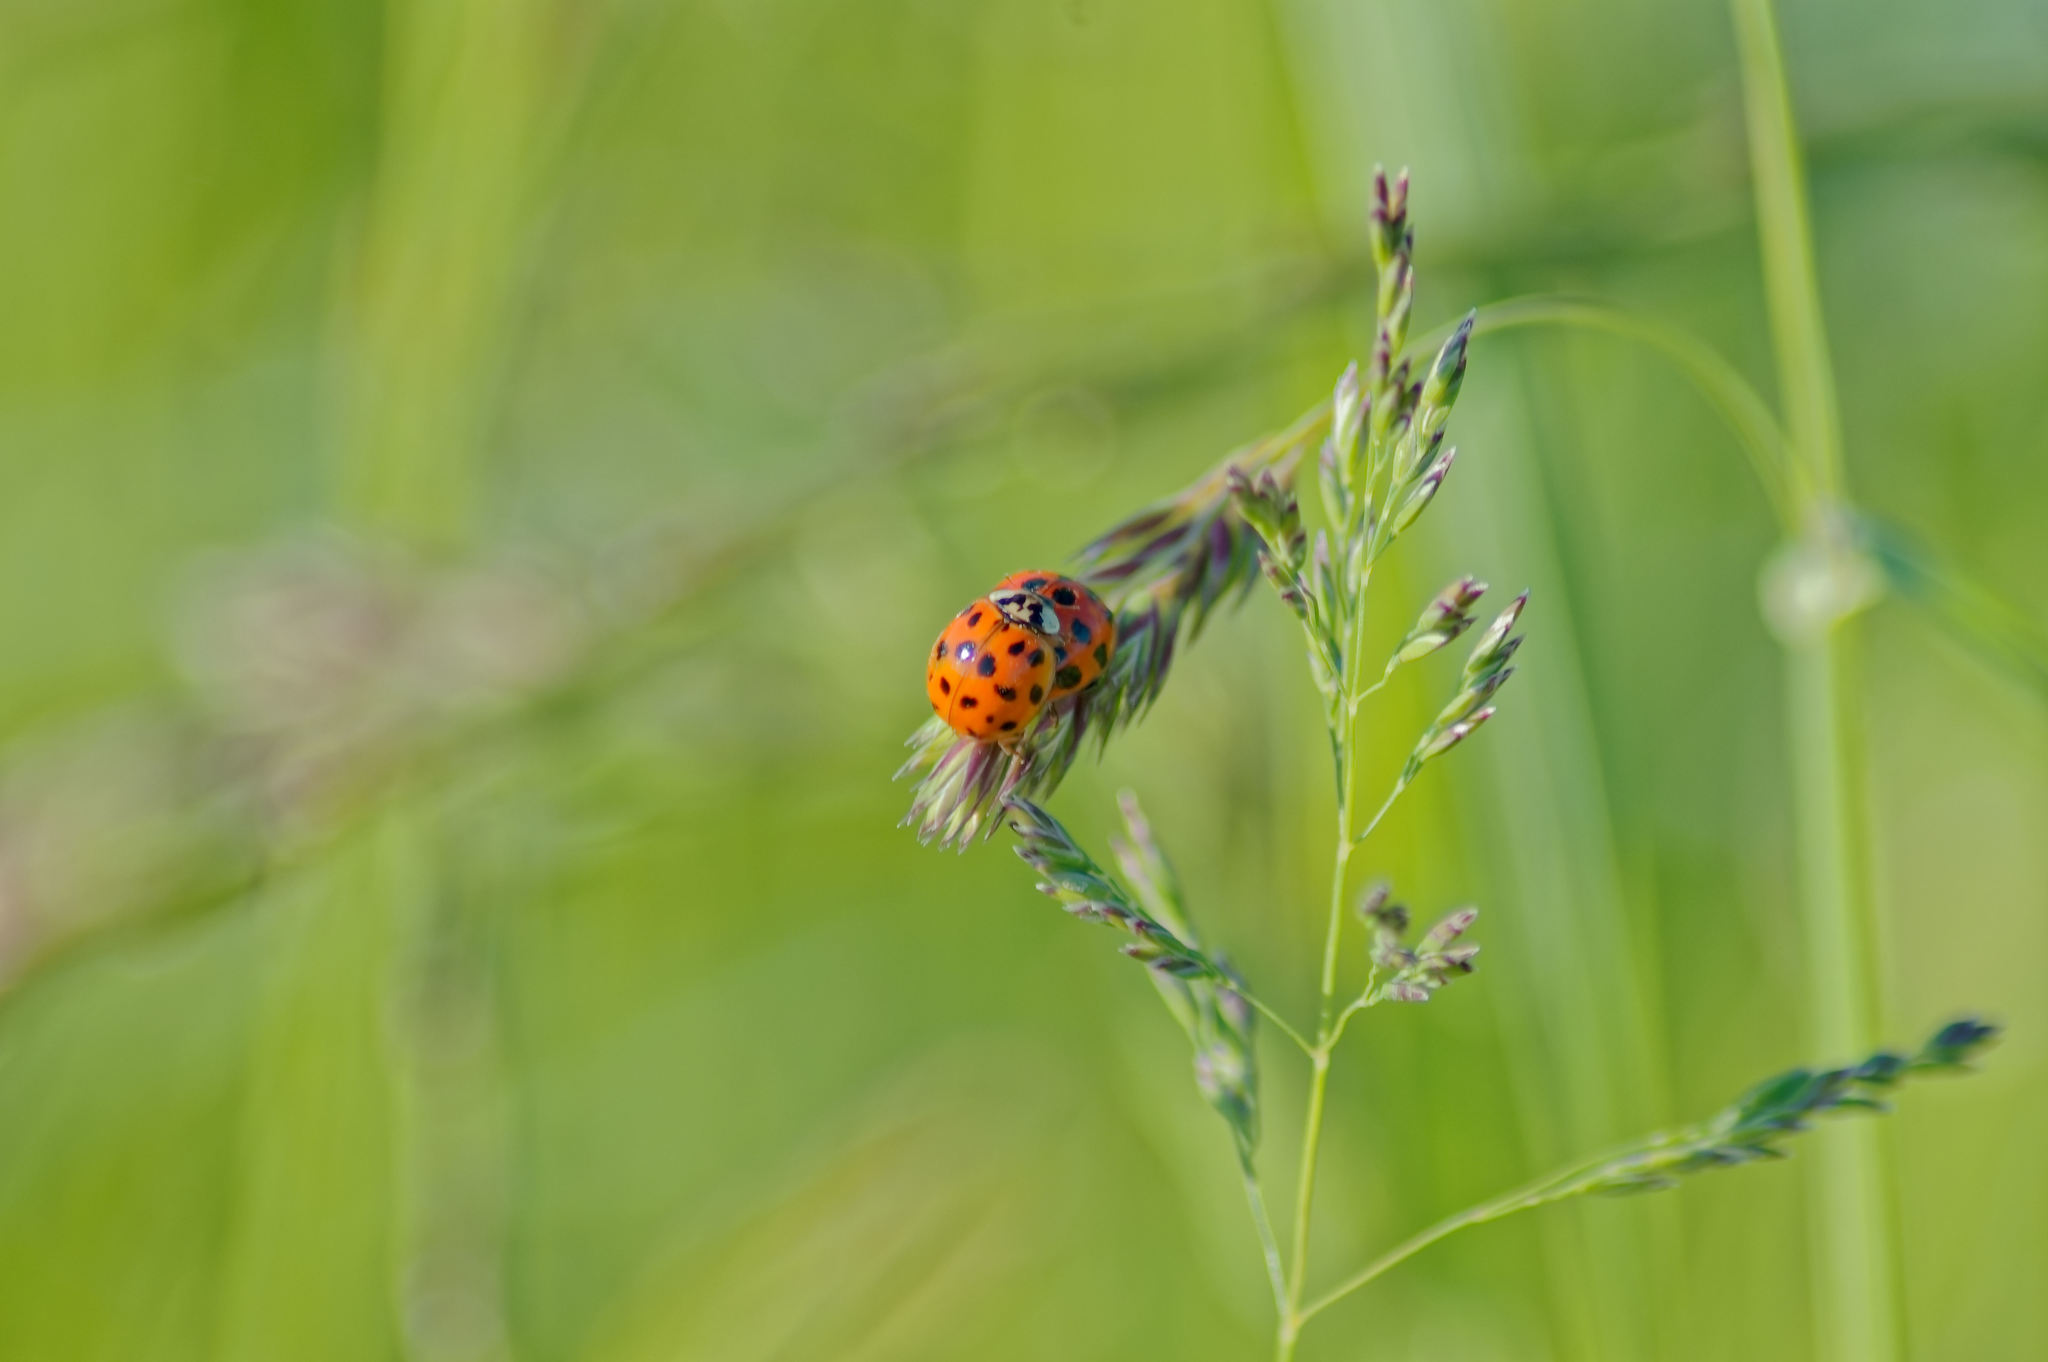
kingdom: Animalia
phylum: Arthropoda
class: Insecta
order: Coleoptera
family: Coccinellidae
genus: Harmonia
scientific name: Harmonia axyridis
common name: Harlequin ladybird
